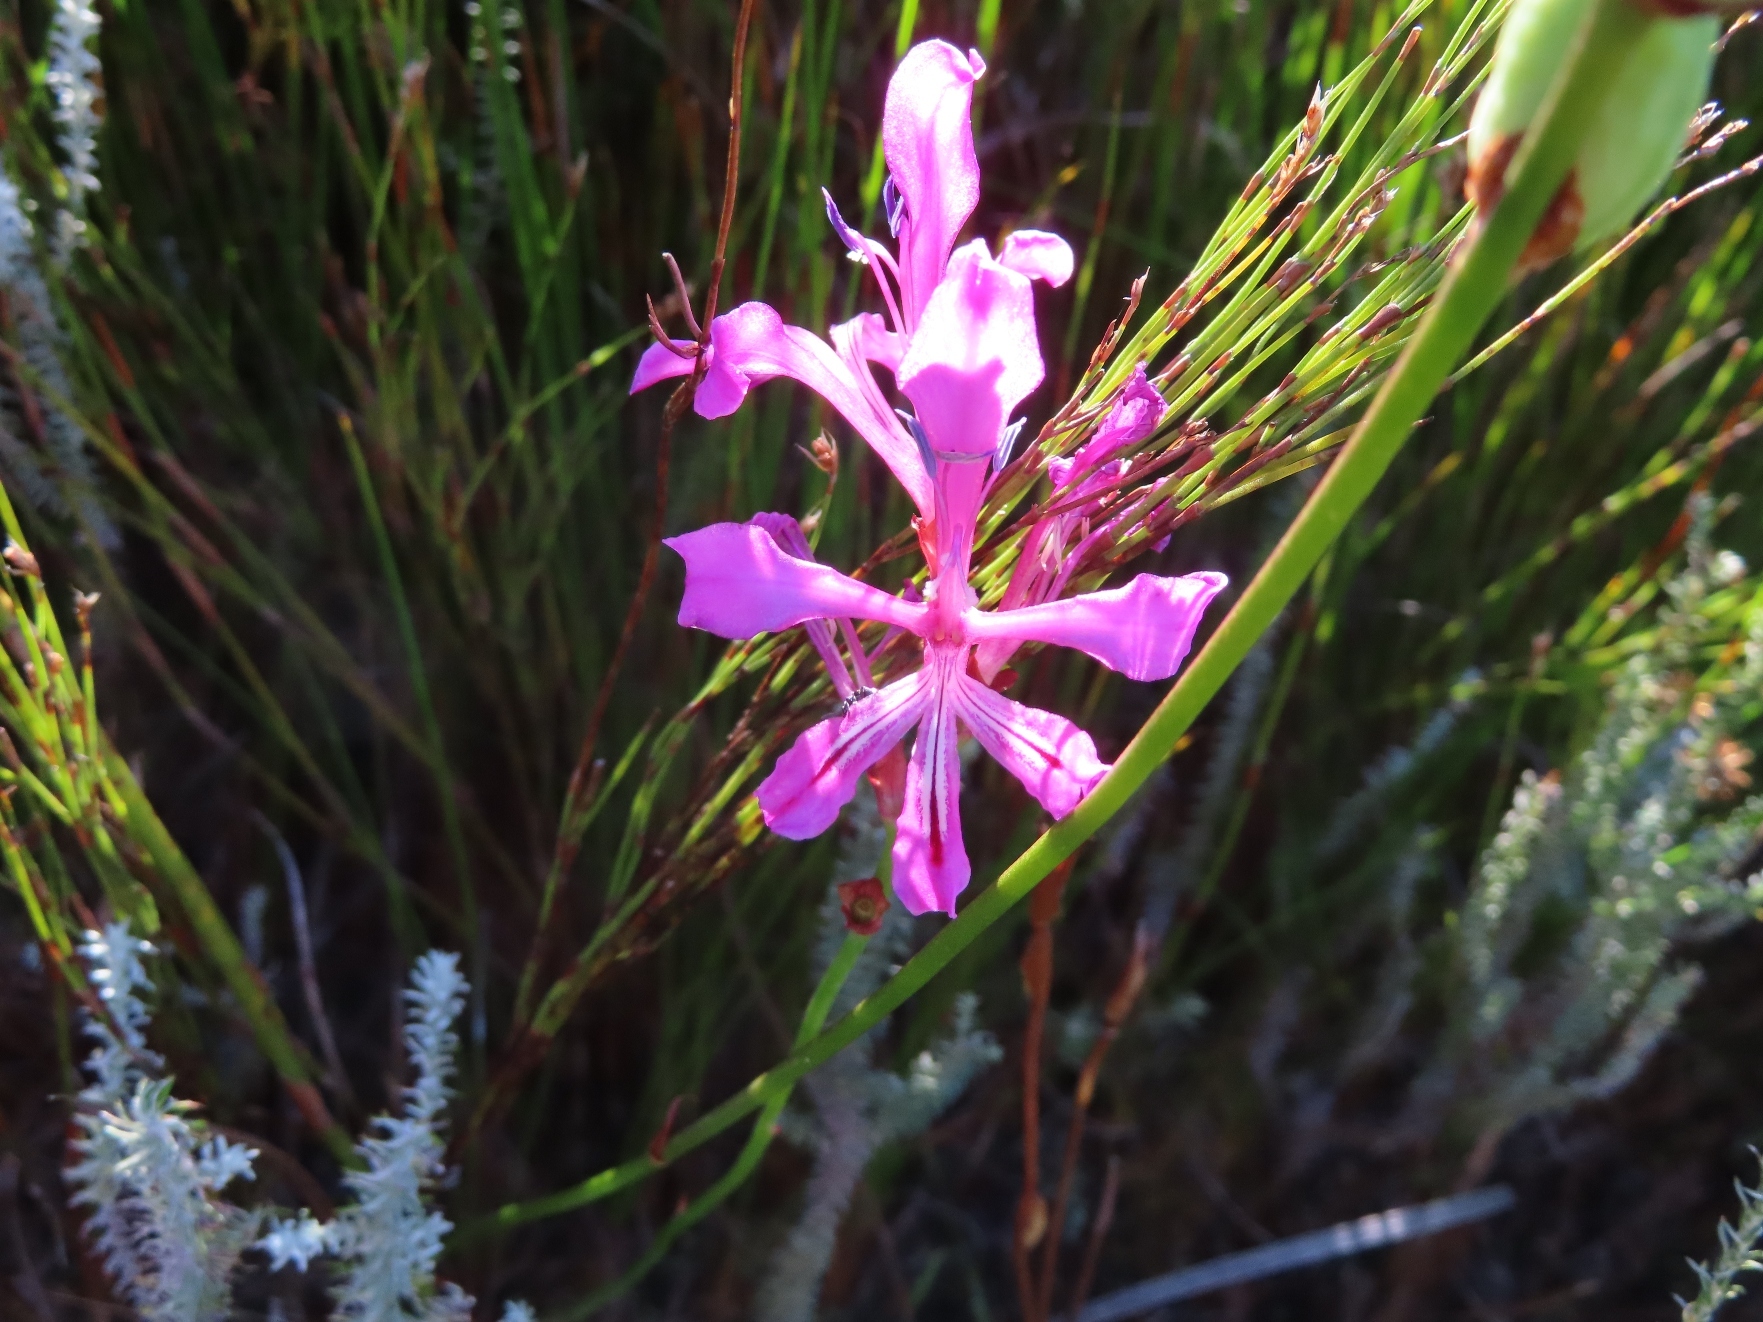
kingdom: Plantae
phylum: Tracheophyta
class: Liliopsida
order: Asparagales
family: Iridaceae
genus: Tritoniopsis
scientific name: Tritoniopsis lata
